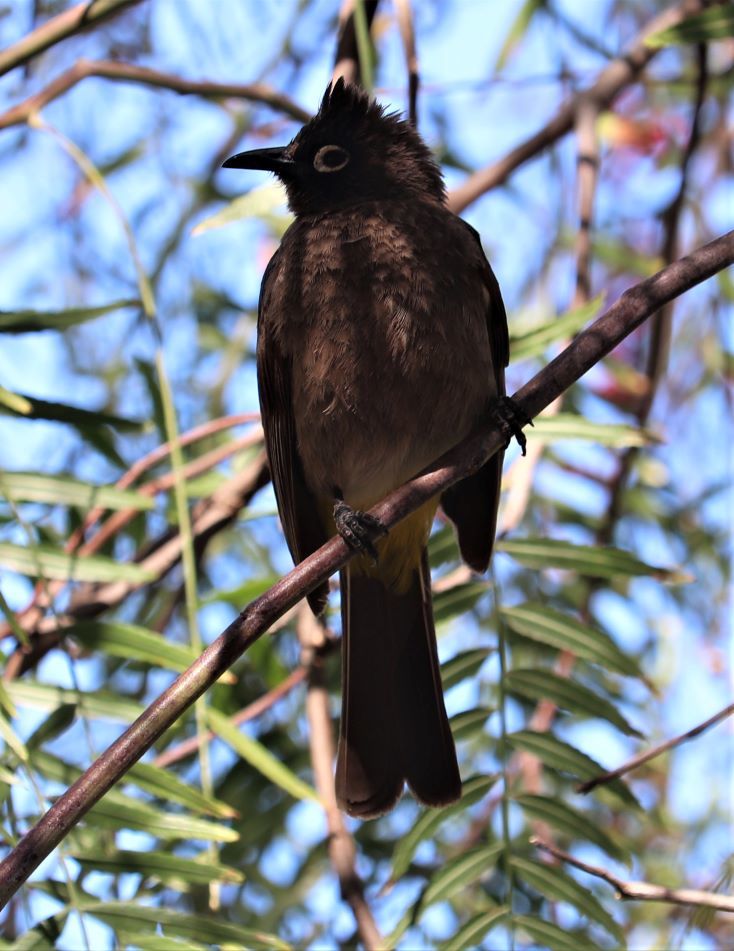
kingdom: Animalia
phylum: Chordata
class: Aves
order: Passeriformes
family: Pycnonotidae
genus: Pycnonotus
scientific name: Pycnonotus capensis
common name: Cape bulbul
